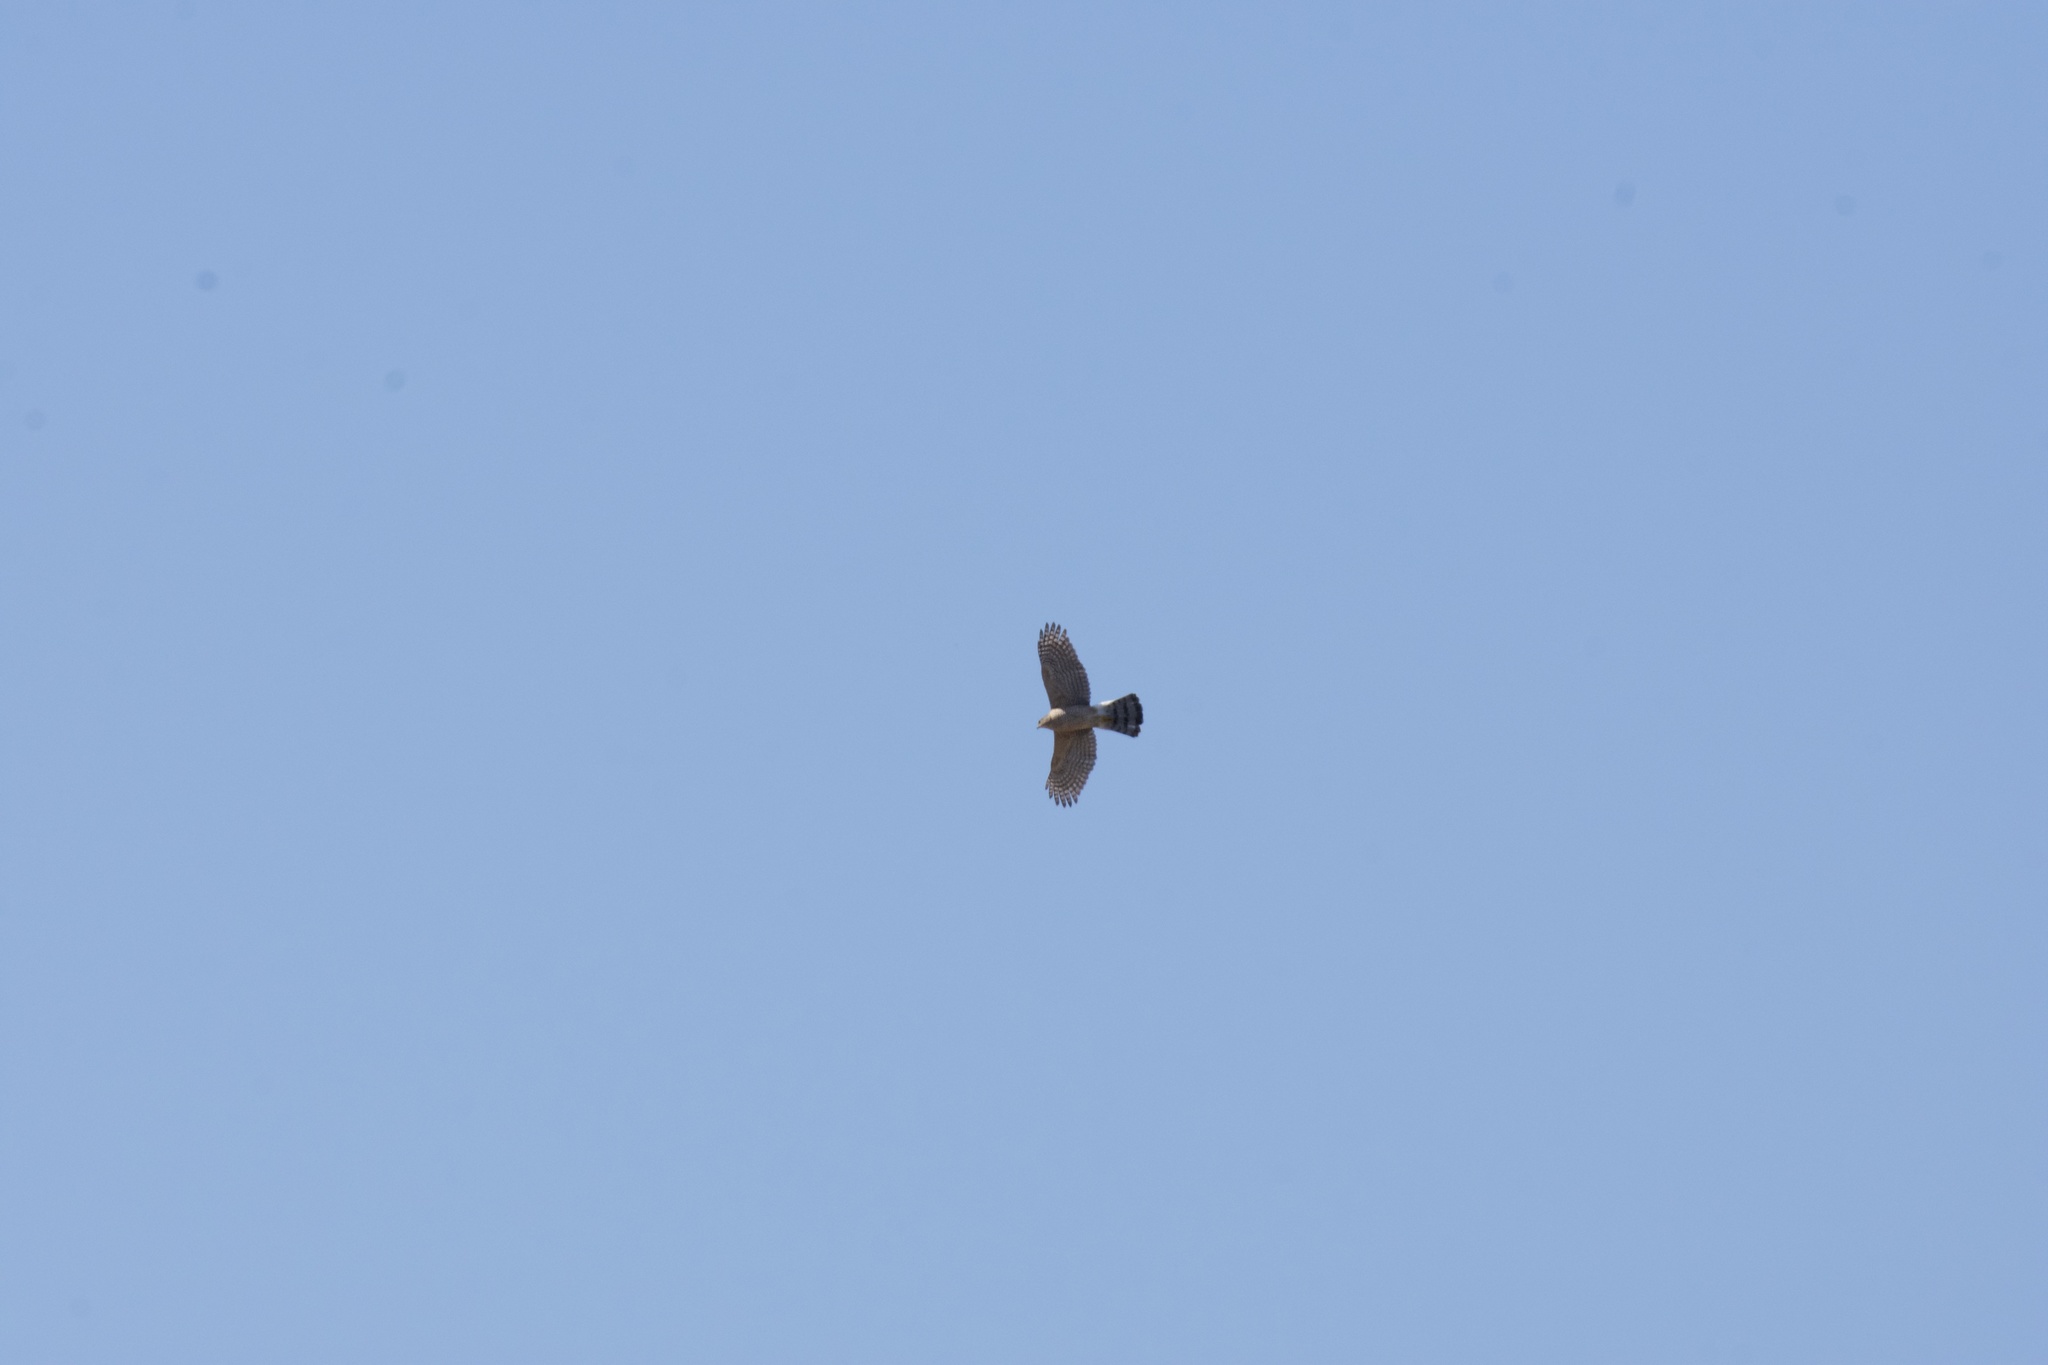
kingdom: Animalia
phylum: Chordata
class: Aves
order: Accipitriformes
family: Accipitridae
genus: Accipiter
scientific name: Accipiter cooperii
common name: Cooper's hawk
